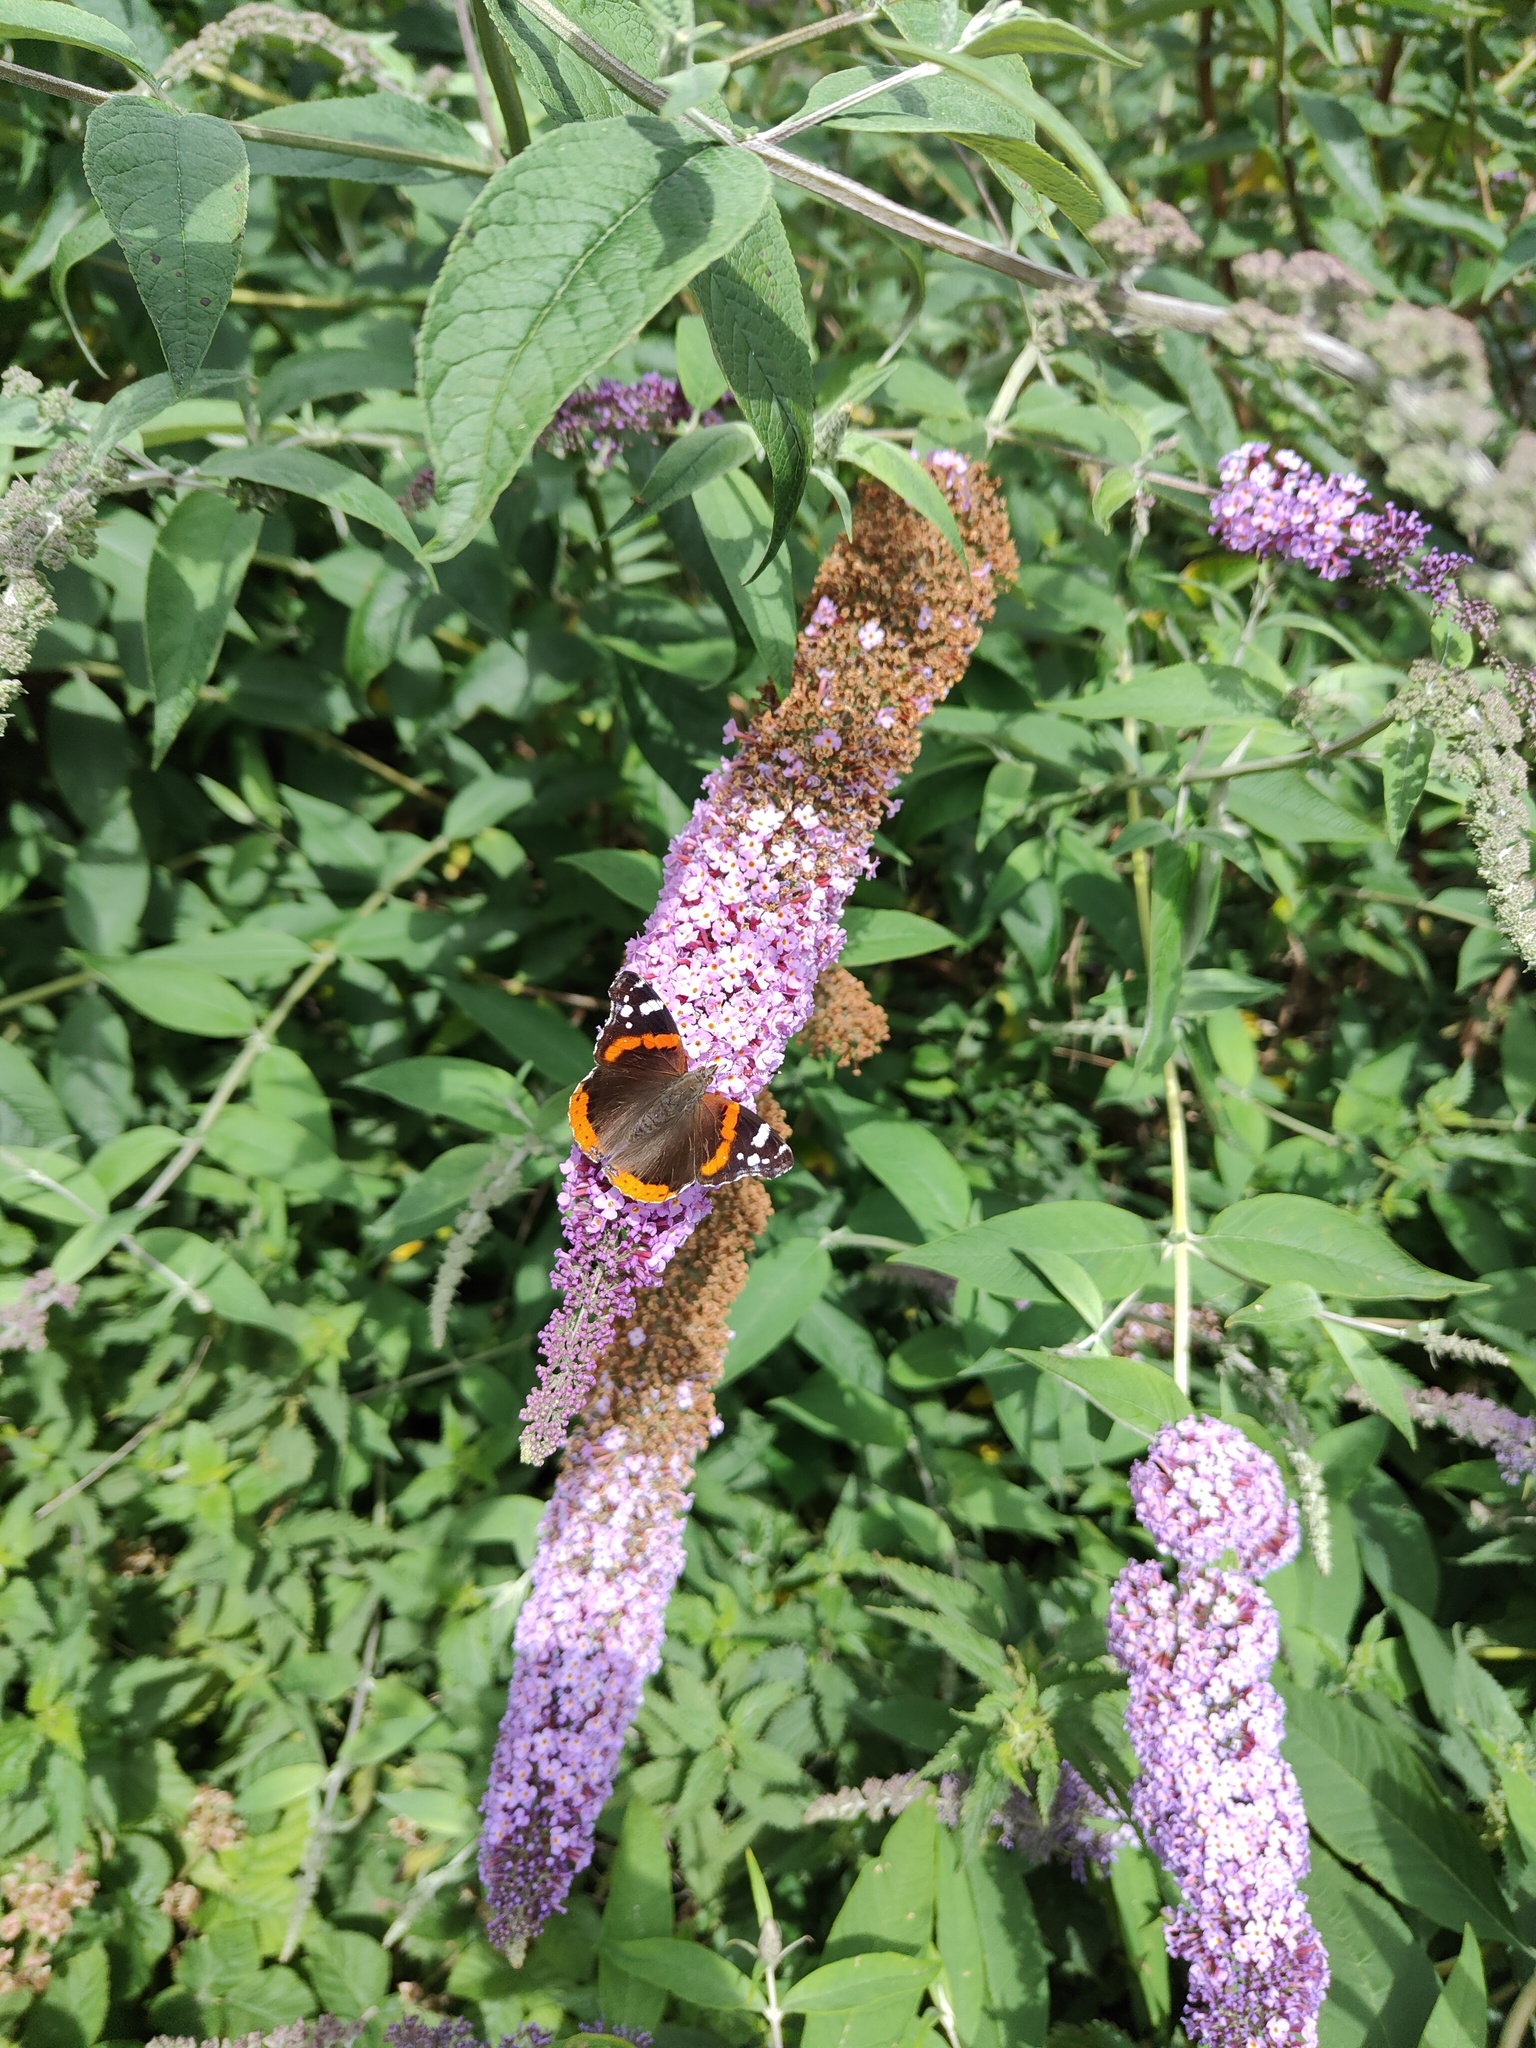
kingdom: Animalia
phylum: Arthropoda
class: Insecta
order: Lepidoptera
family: Nymphalidae
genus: Vanessa
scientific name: Vanessa atalanta
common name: Red admiral
